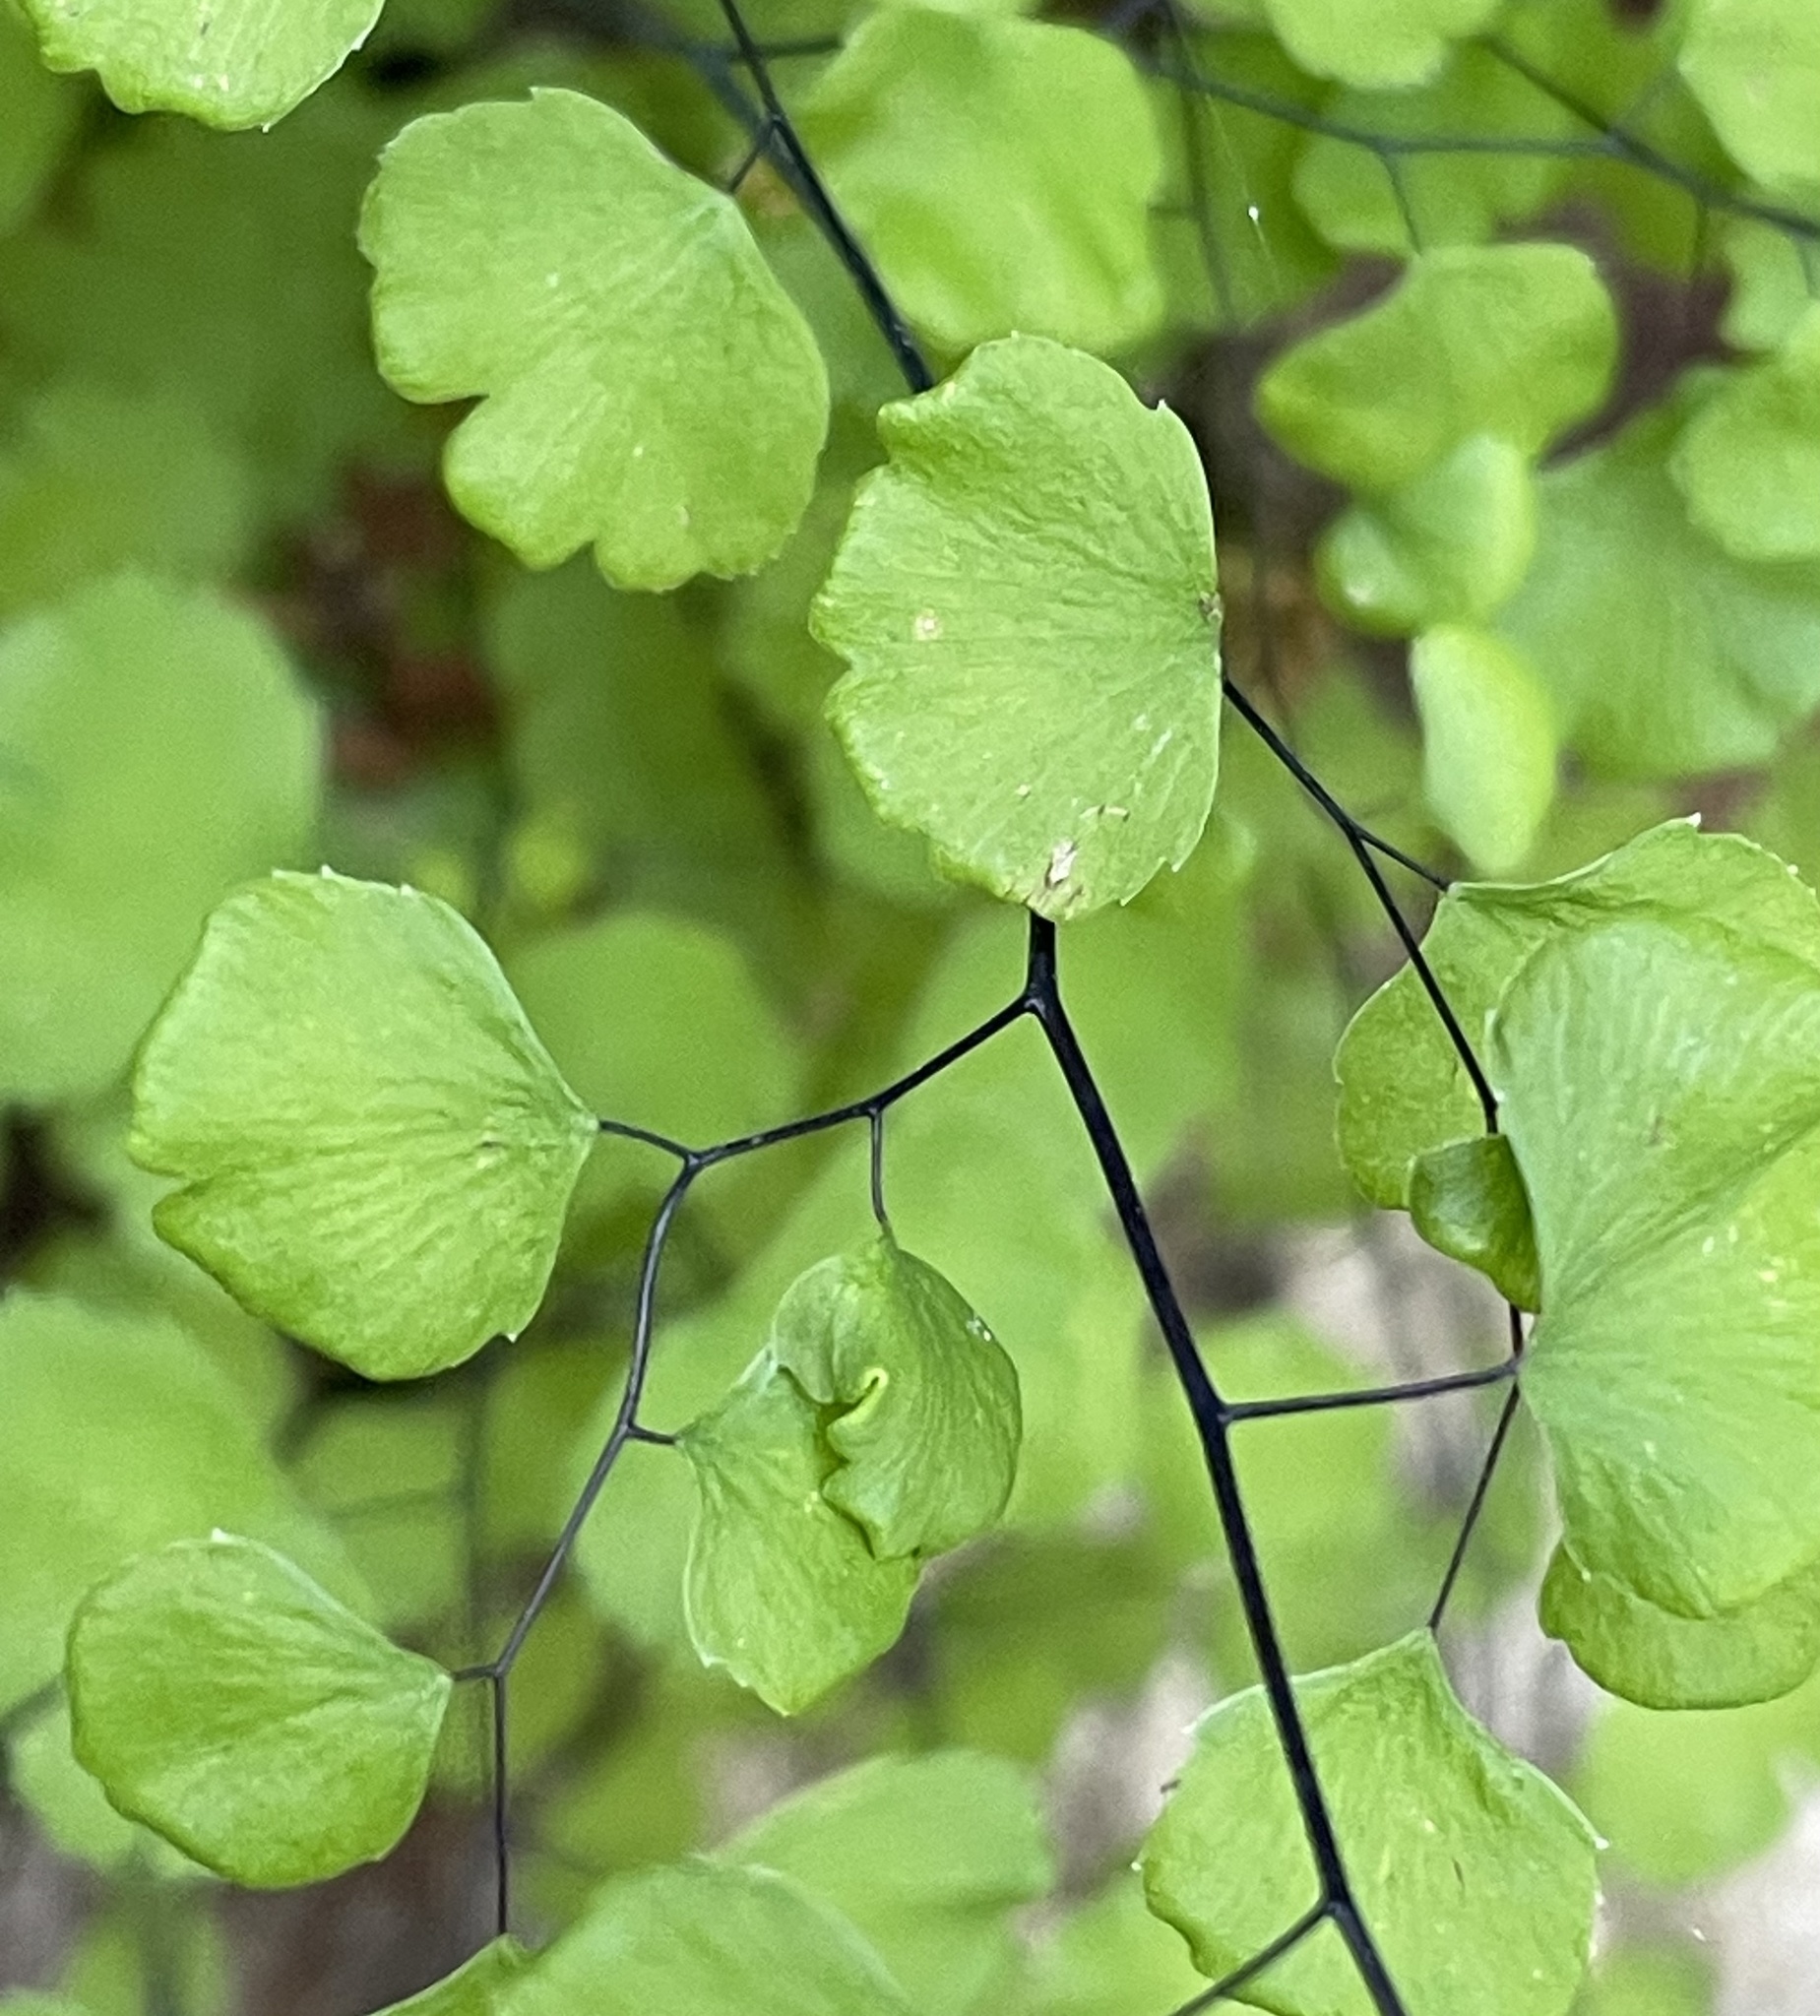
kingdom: Plantae
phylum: Tracheophyta
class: Polypodiopsida
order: Polypodiales
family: Pteridaceae
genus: Adiantum
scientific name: Adiantum jordanii
